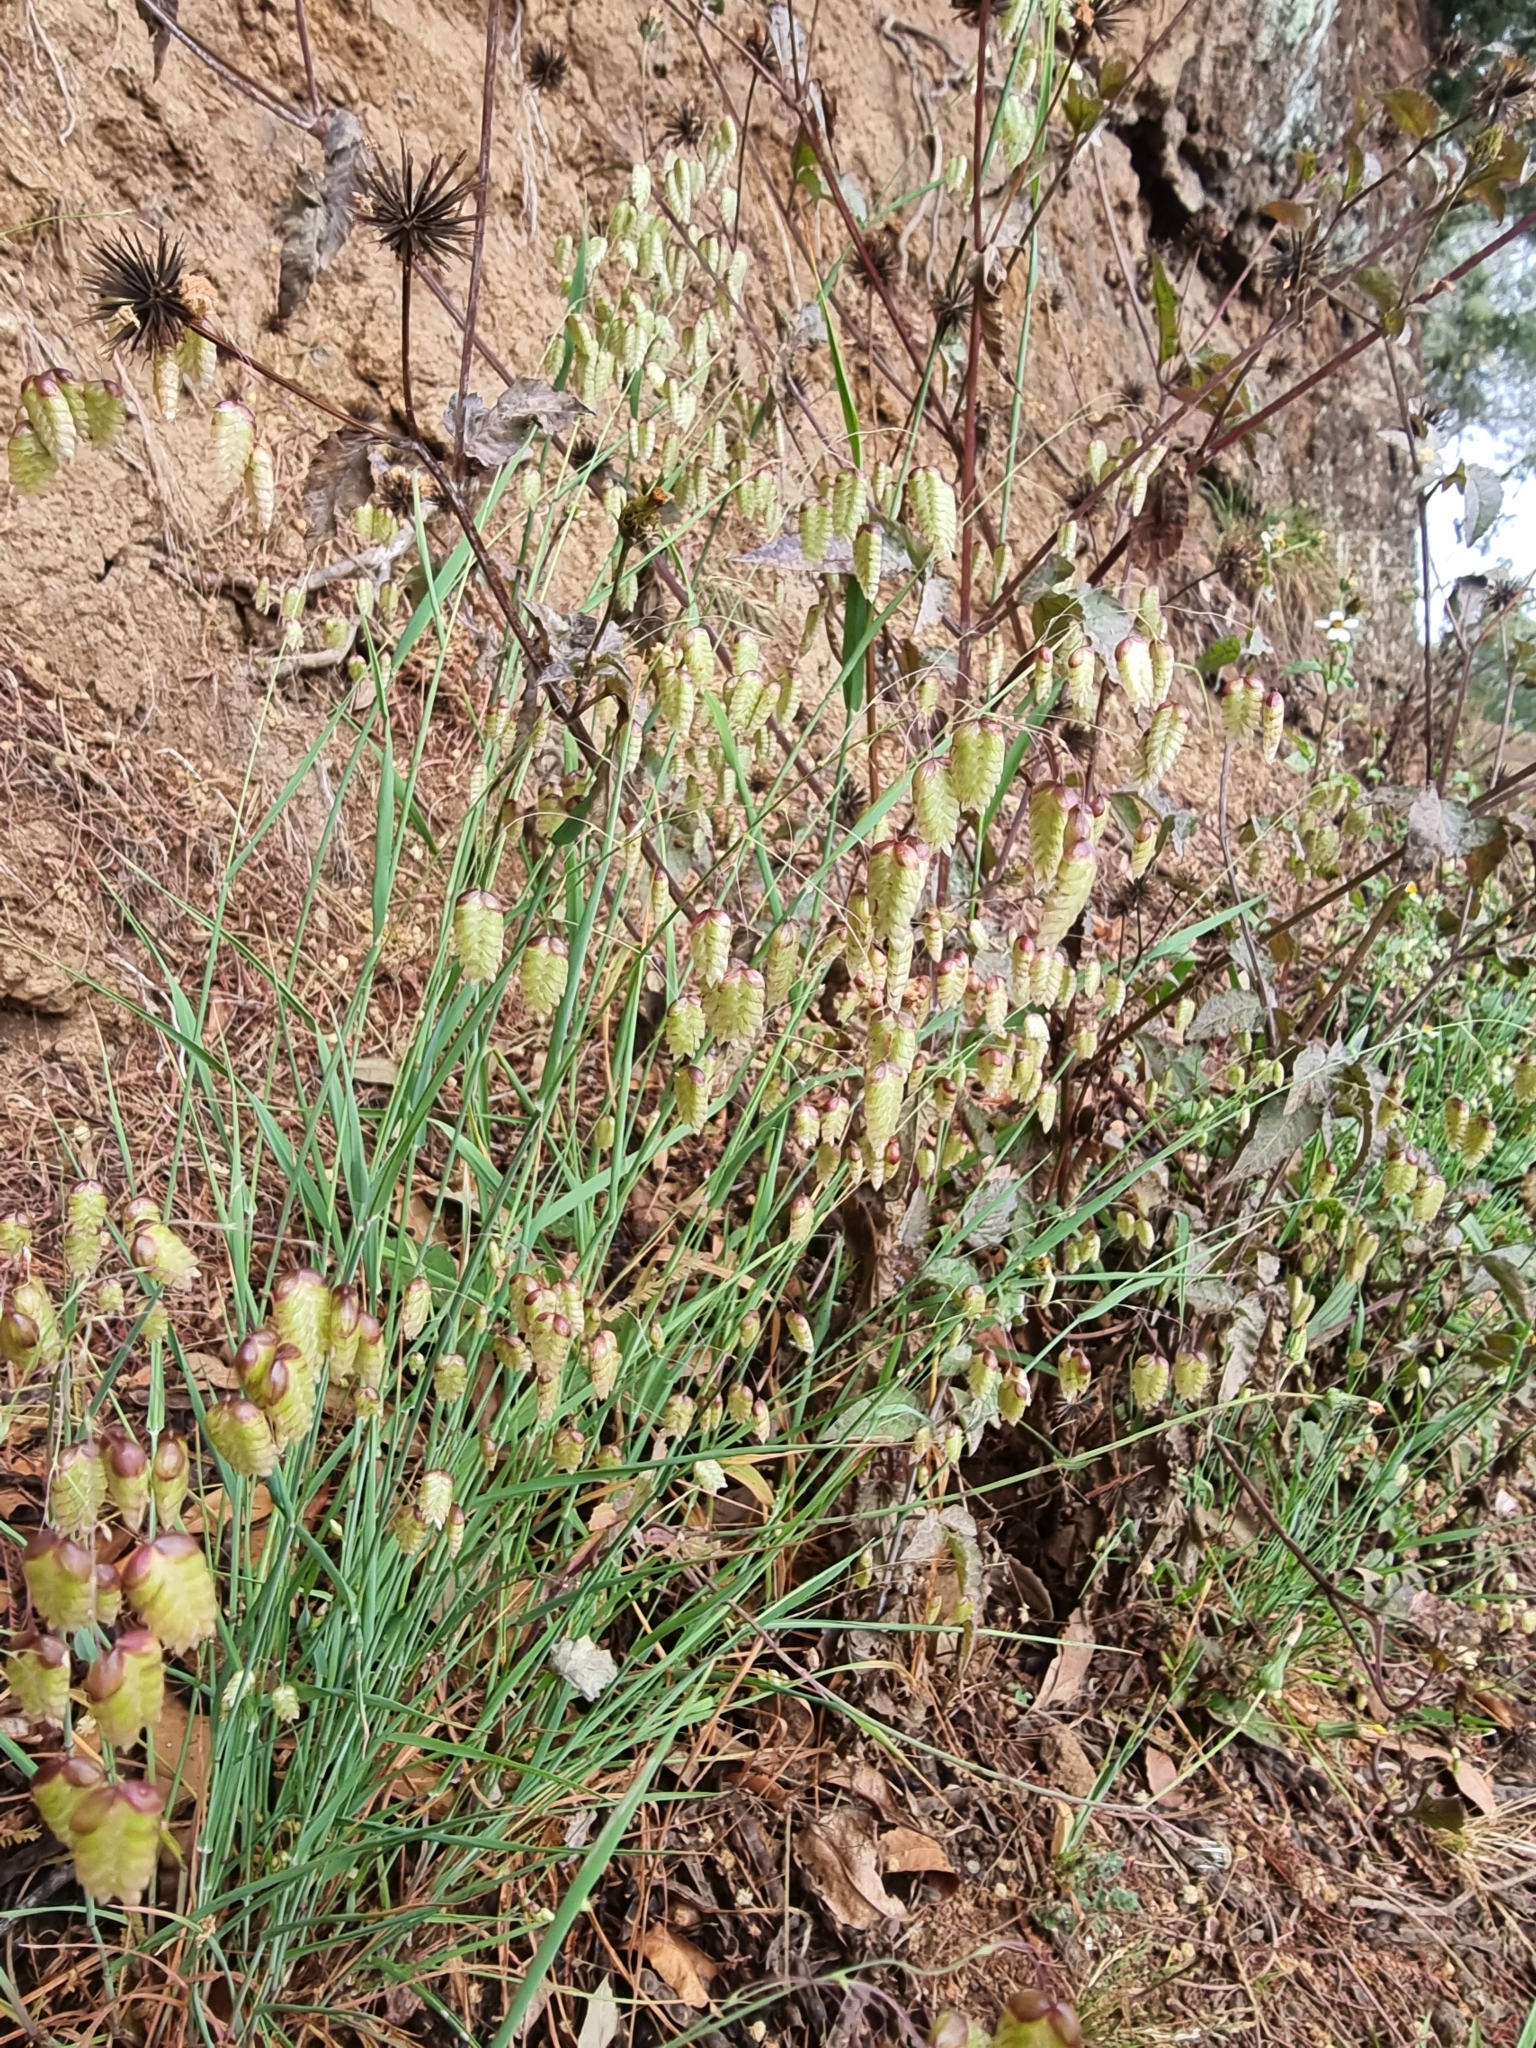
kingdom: Plantae
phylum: Tracheophyta
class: Liliopsida
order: Poales
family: Poaceae
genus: Briza
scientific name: Briza maxima
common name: Big quakinggrass
